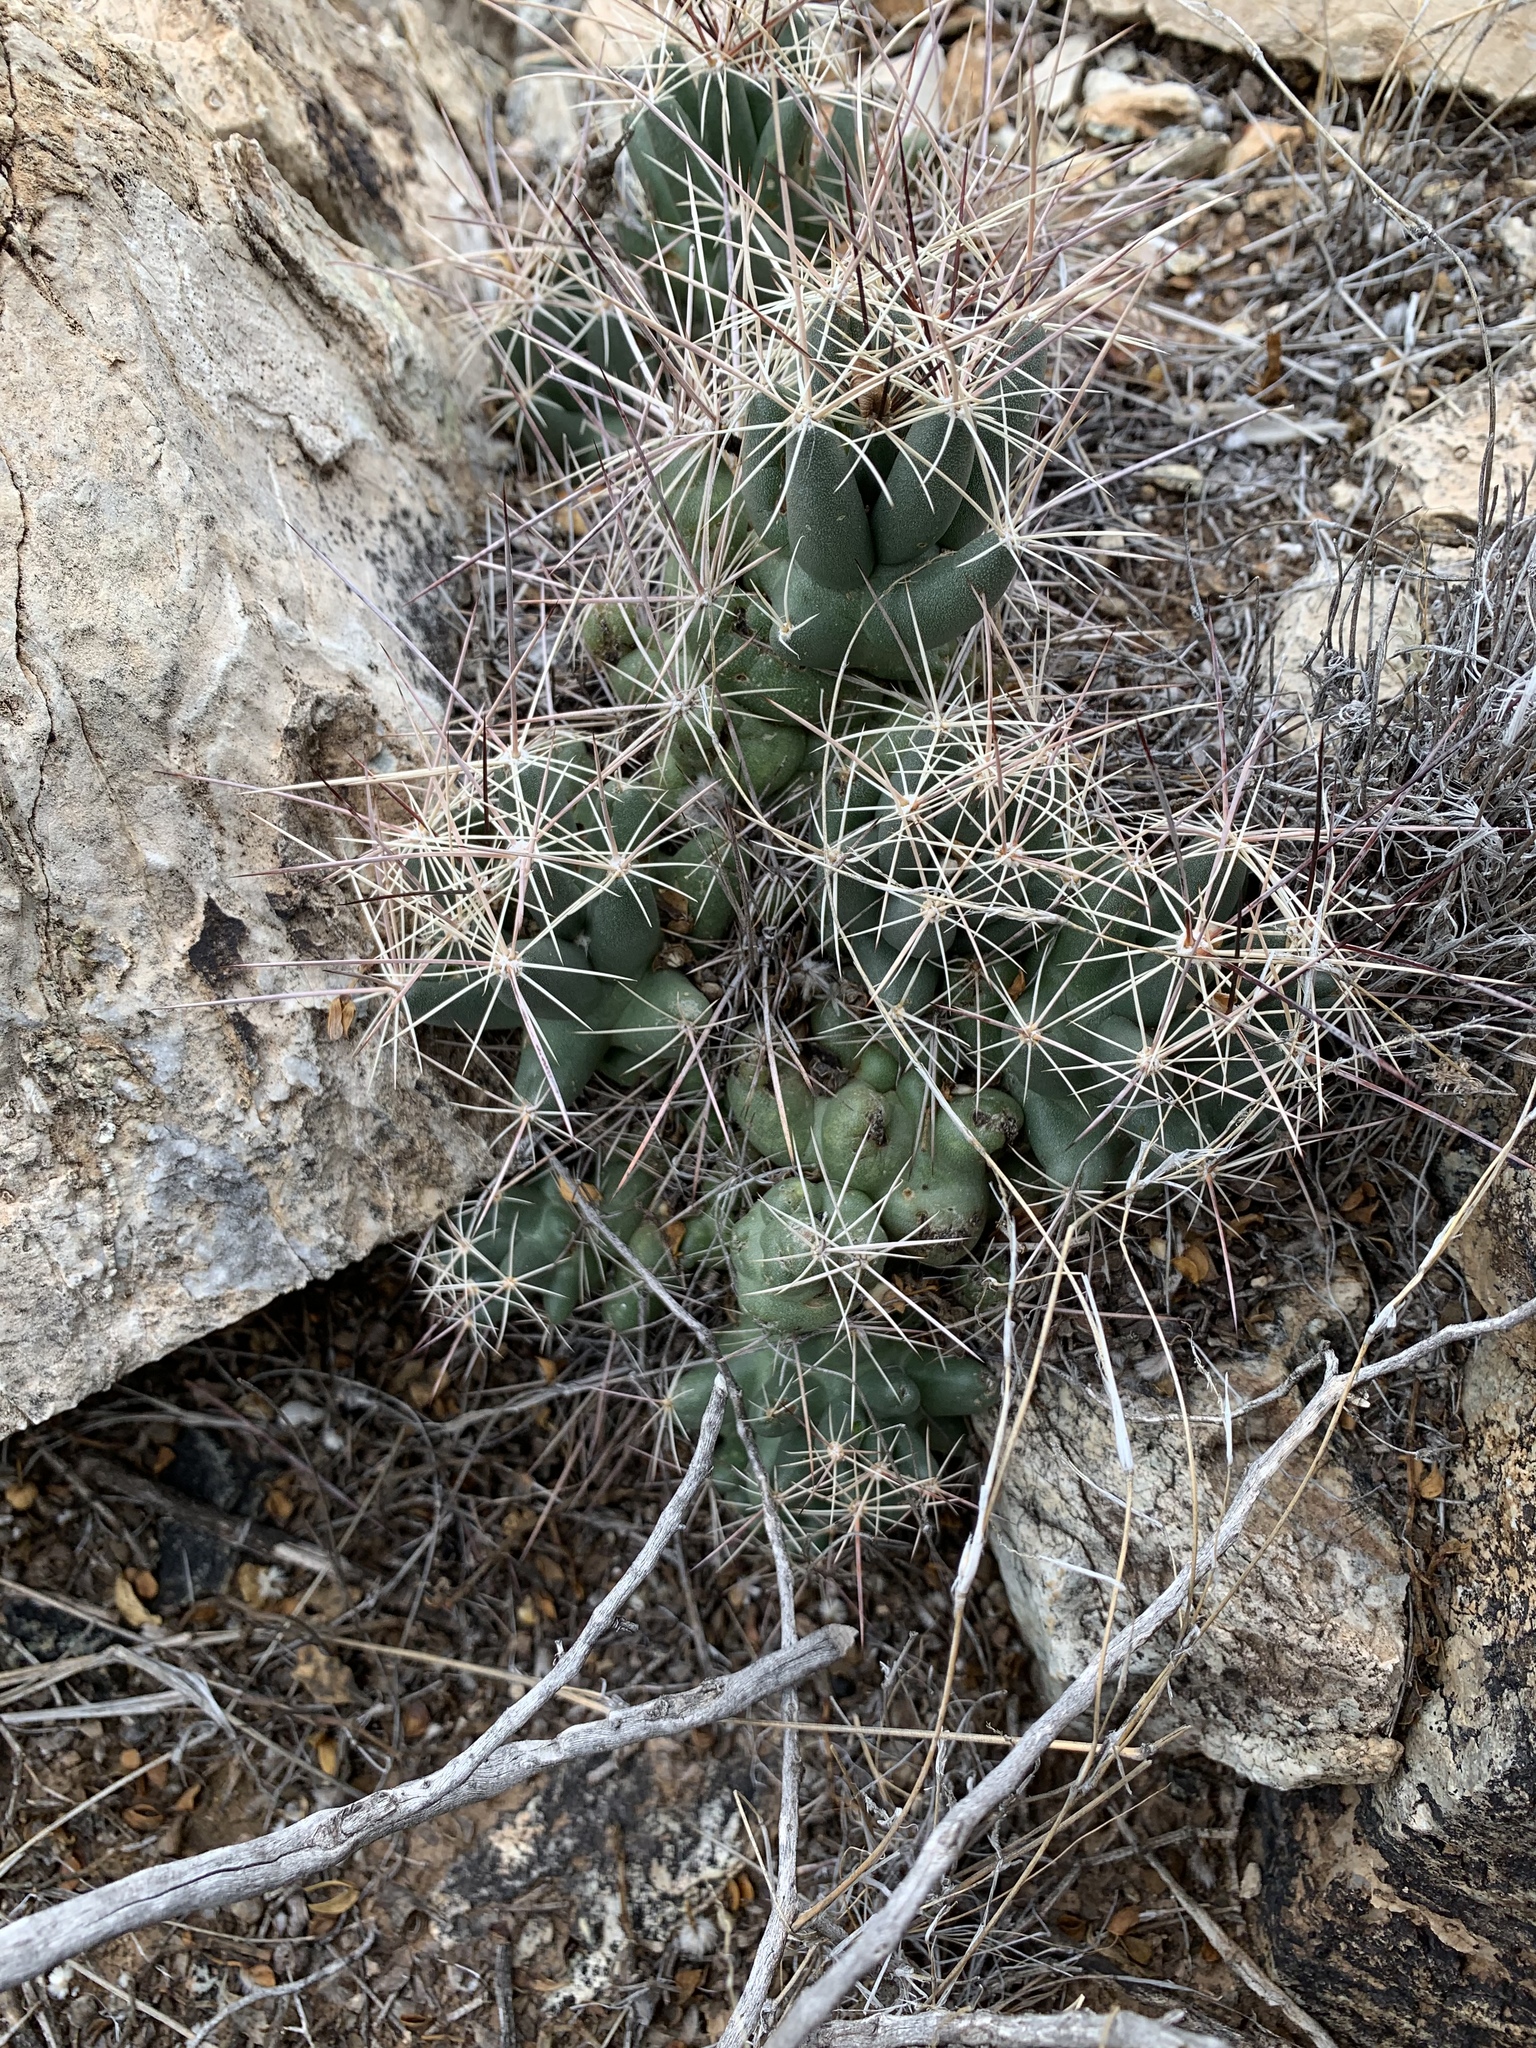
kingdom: Plantae
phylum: Tracheophyta
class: Magnoliopsida
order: Caryophyllales
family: Cactaceae
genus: Coryphantha
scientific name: Coryphantha macromeris
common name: Nipple beehive cactus
